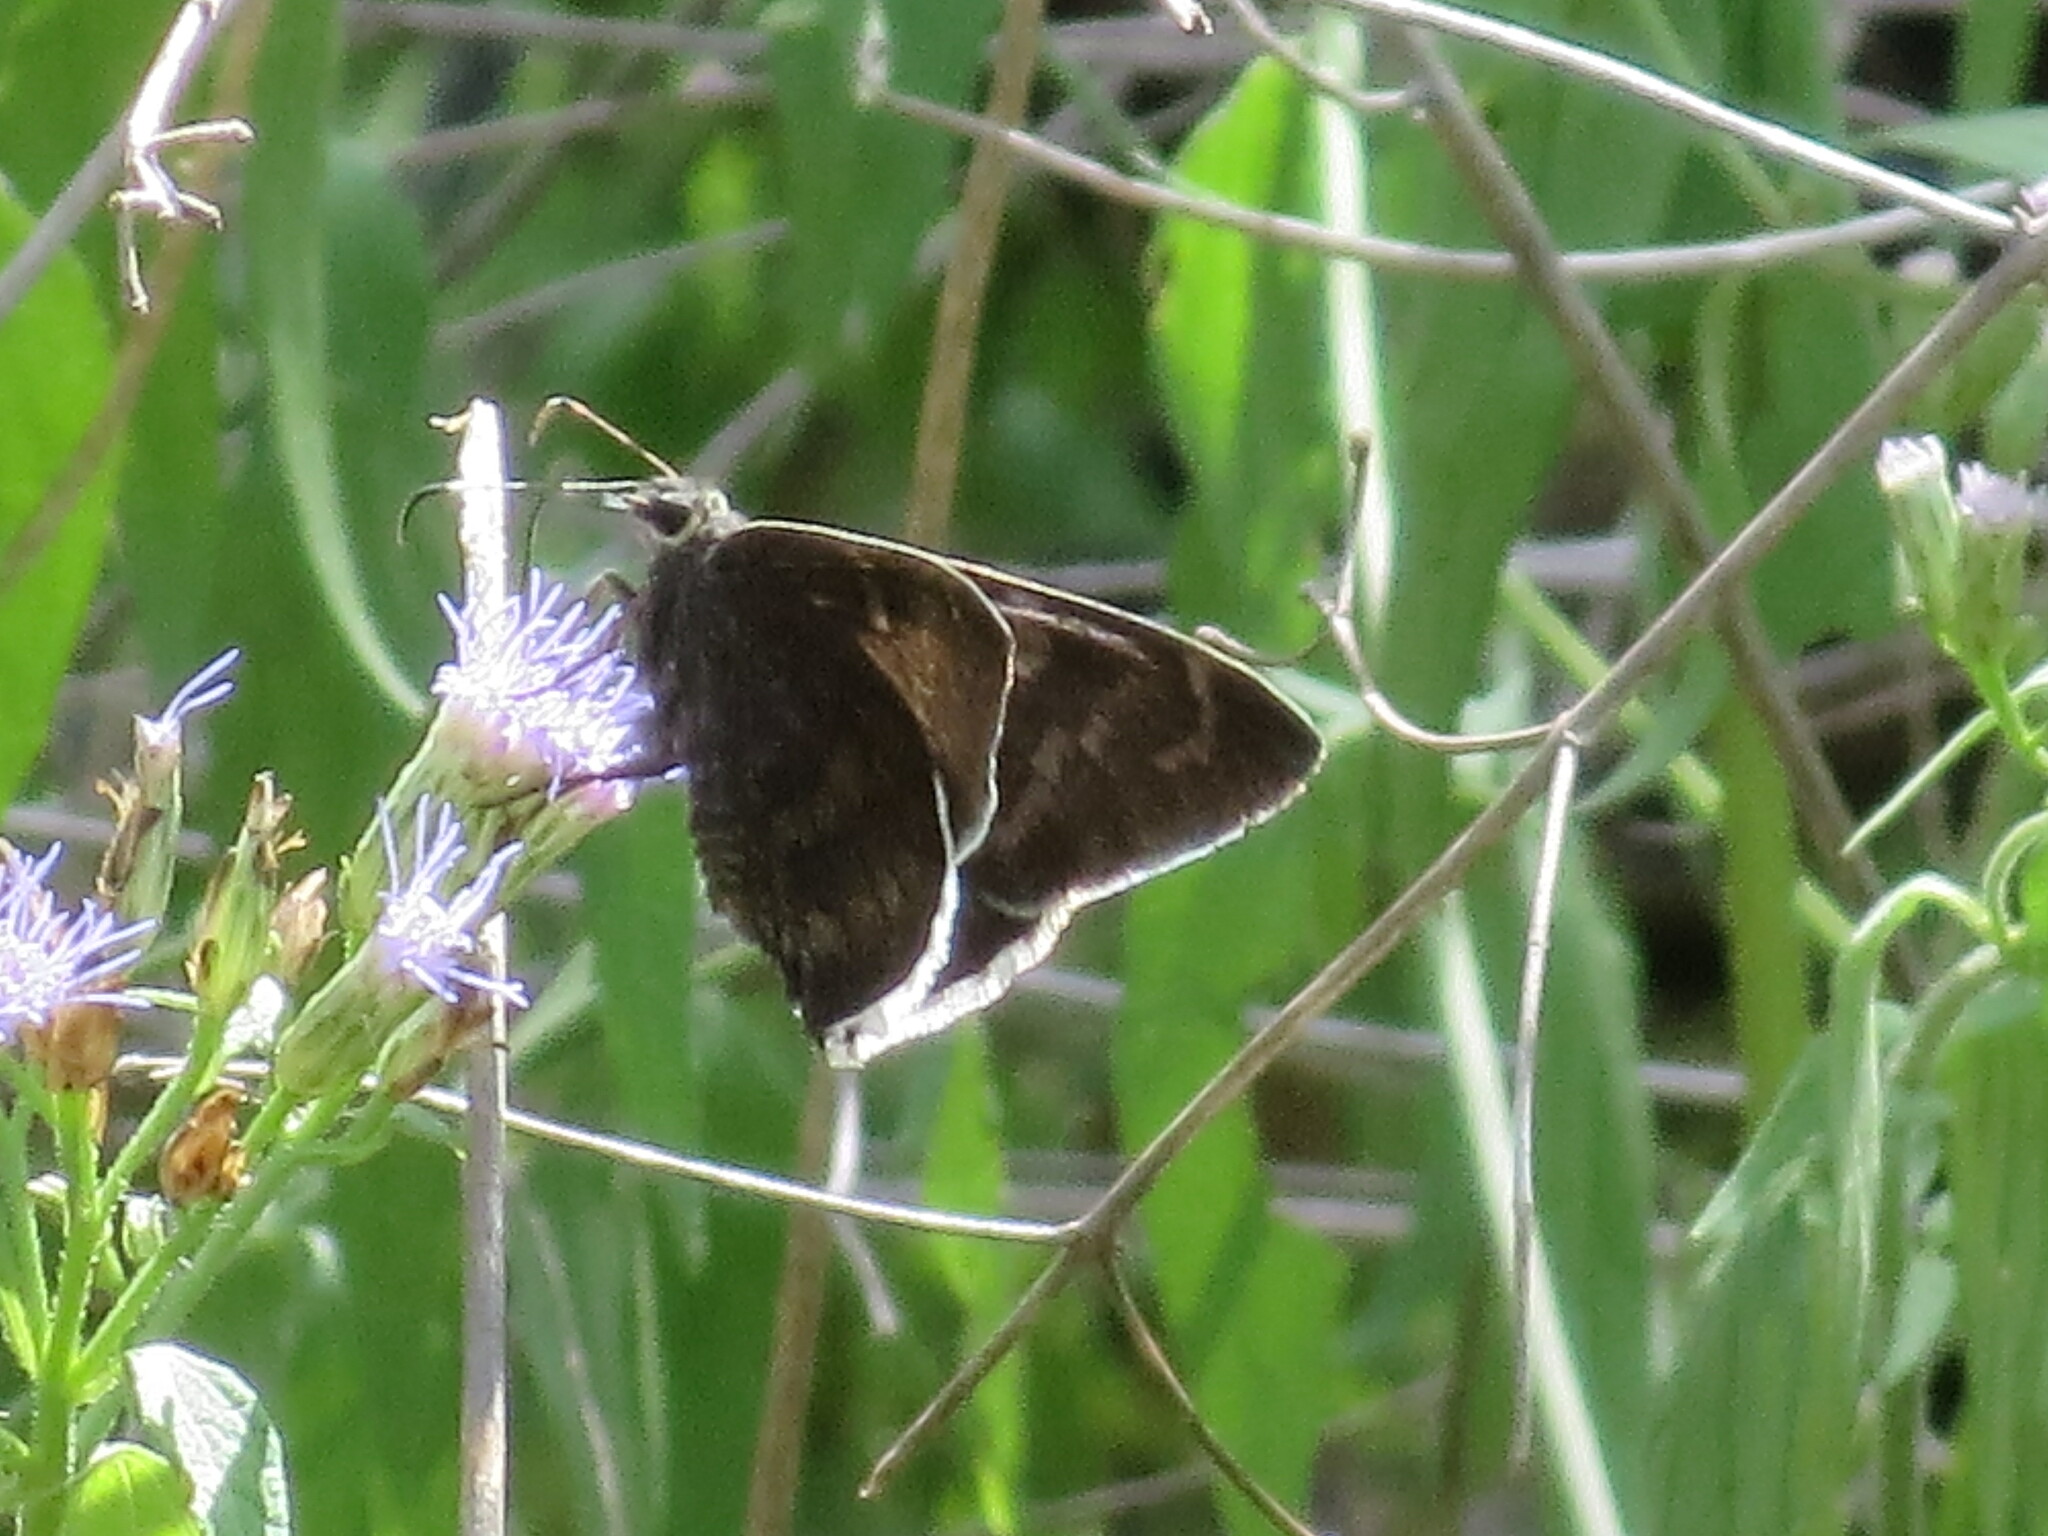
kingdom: Animalia
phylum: Arthropoda
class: Insecta
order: Lepidoptera
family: Hesperiidae
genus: Erynnis
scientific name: Erynnis funeralis
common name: Funereal duskywing
